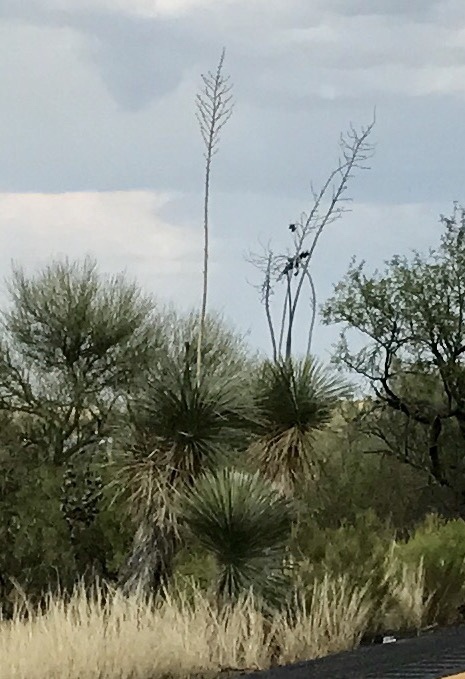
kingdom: Plantae
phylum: Tracheophyta
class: Liliopsida
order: Asparagales
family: Asparagaceae
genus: Yucca
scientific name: Yucca elata
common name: Palmella
